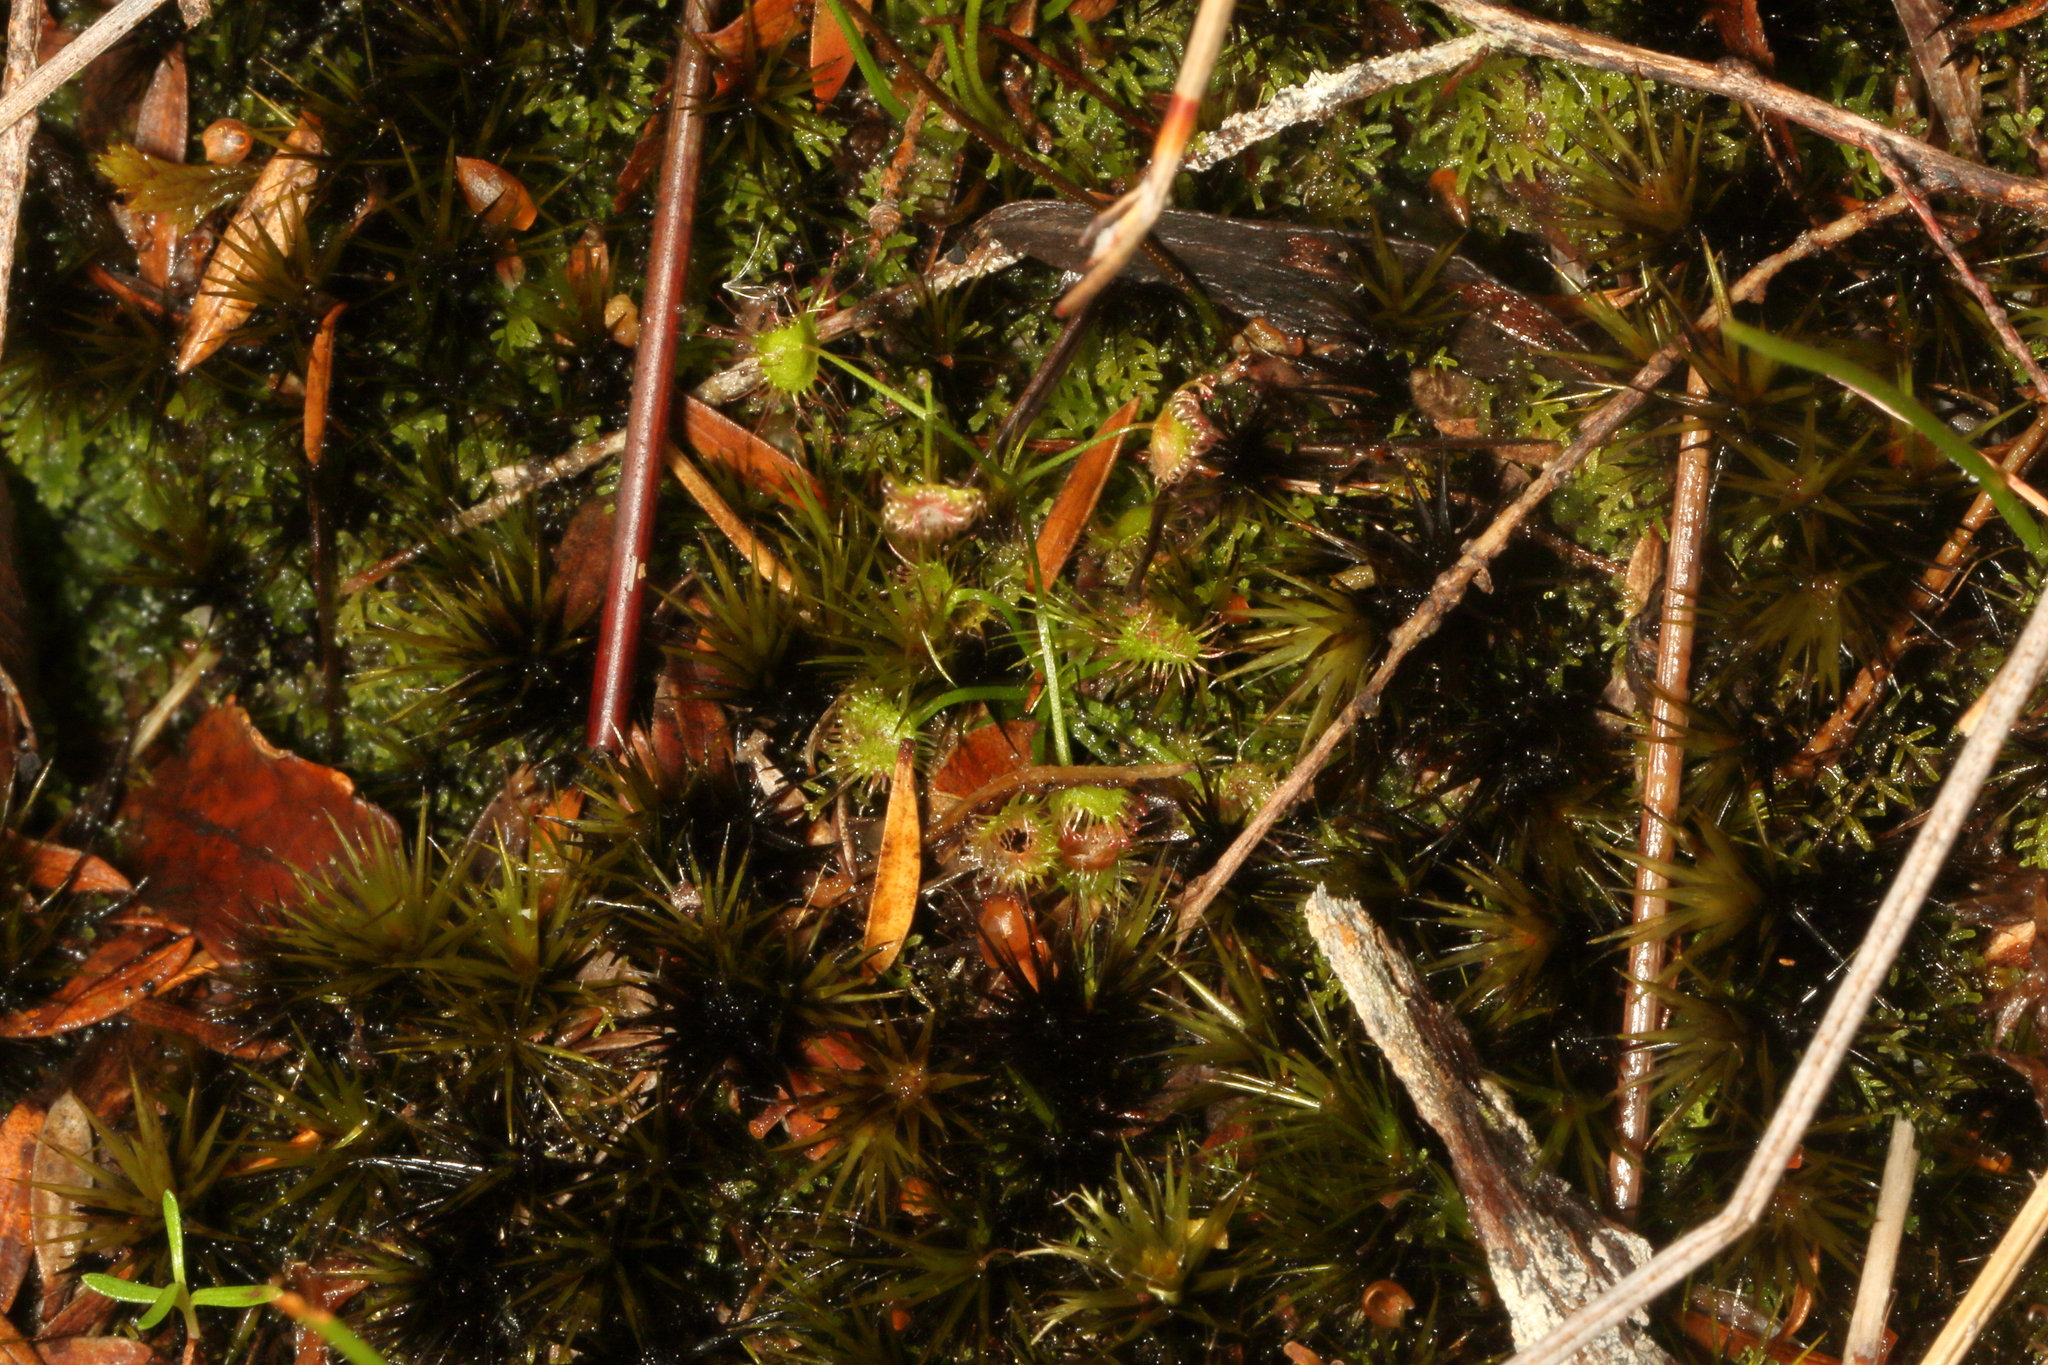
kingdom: Plantae
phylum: Tracheophyta
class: Magnoliopsida
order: Caryophyllales
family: Droseraceae
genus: Drosera
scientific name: Drosera peltata
